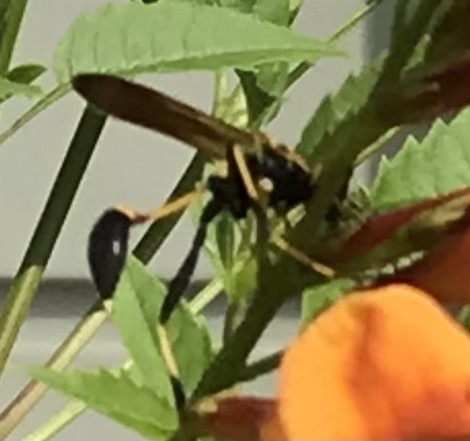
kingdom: Animalia
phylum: Arthropoda
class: Insecta
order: Hymenoptera
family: Sphecidae
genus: Sceliphron
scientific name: Sceliphron caementarium
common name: Mud dauber
